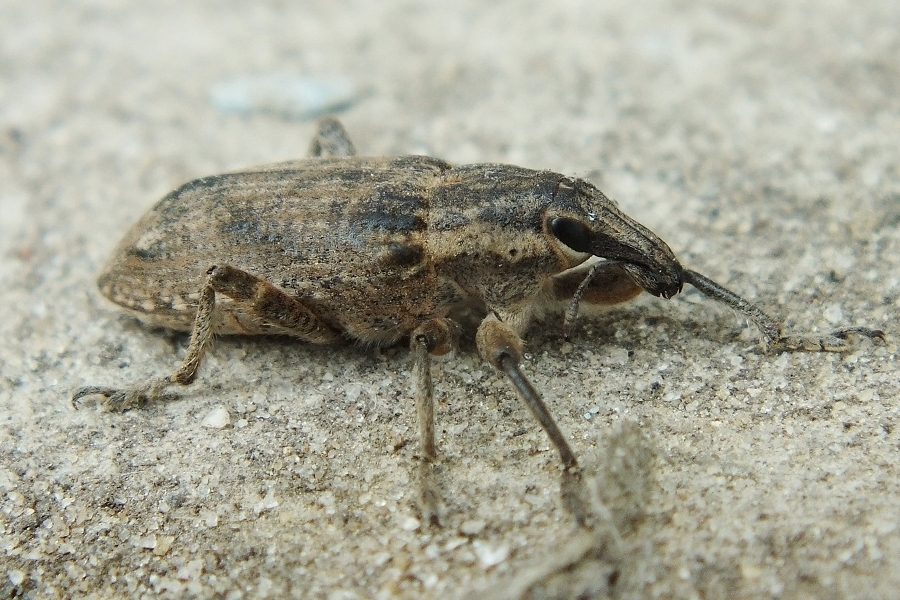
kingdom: Animalia
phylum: Arthropoda
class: Insecta
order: Coleoptera
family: Curculionidae
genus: Asproparthenis
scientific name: Asproparthenis punctiventris
